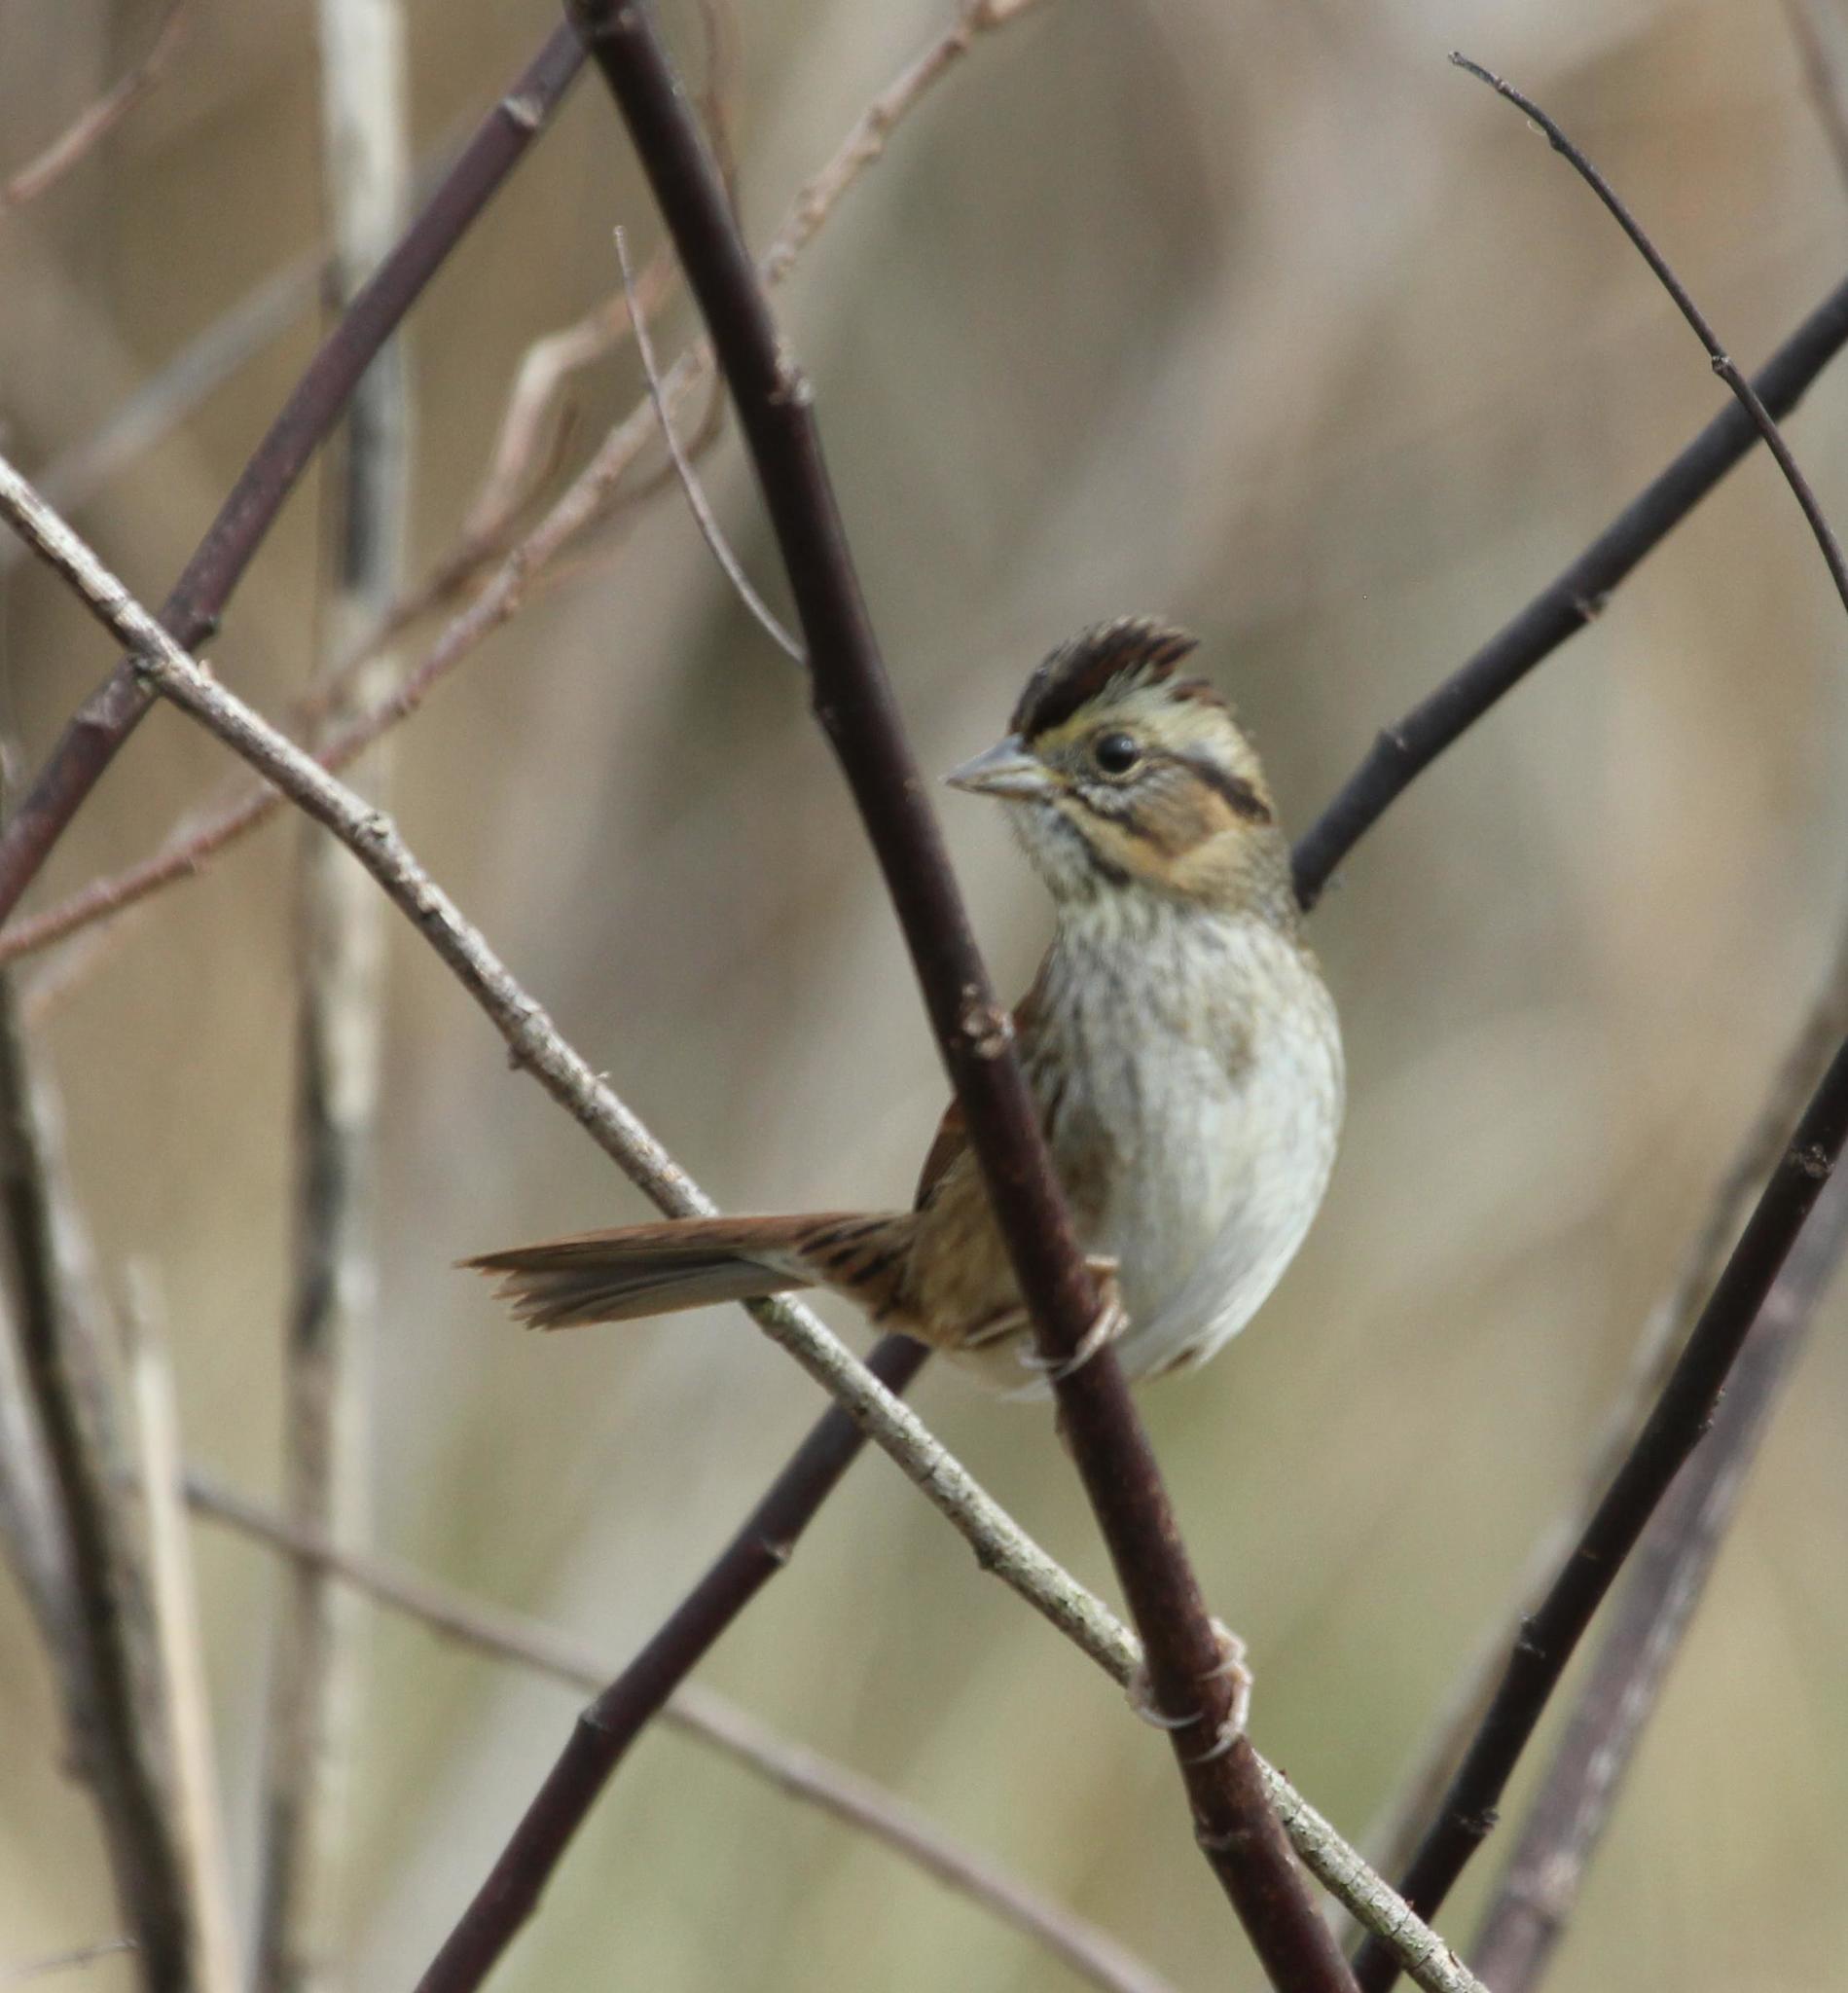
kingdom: Animalia
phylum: Chordata
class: Aves
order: Passeriformes
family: Passerellidae
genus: Melospiza
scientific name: Melospiza georgiana
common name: Swamp sparrow
